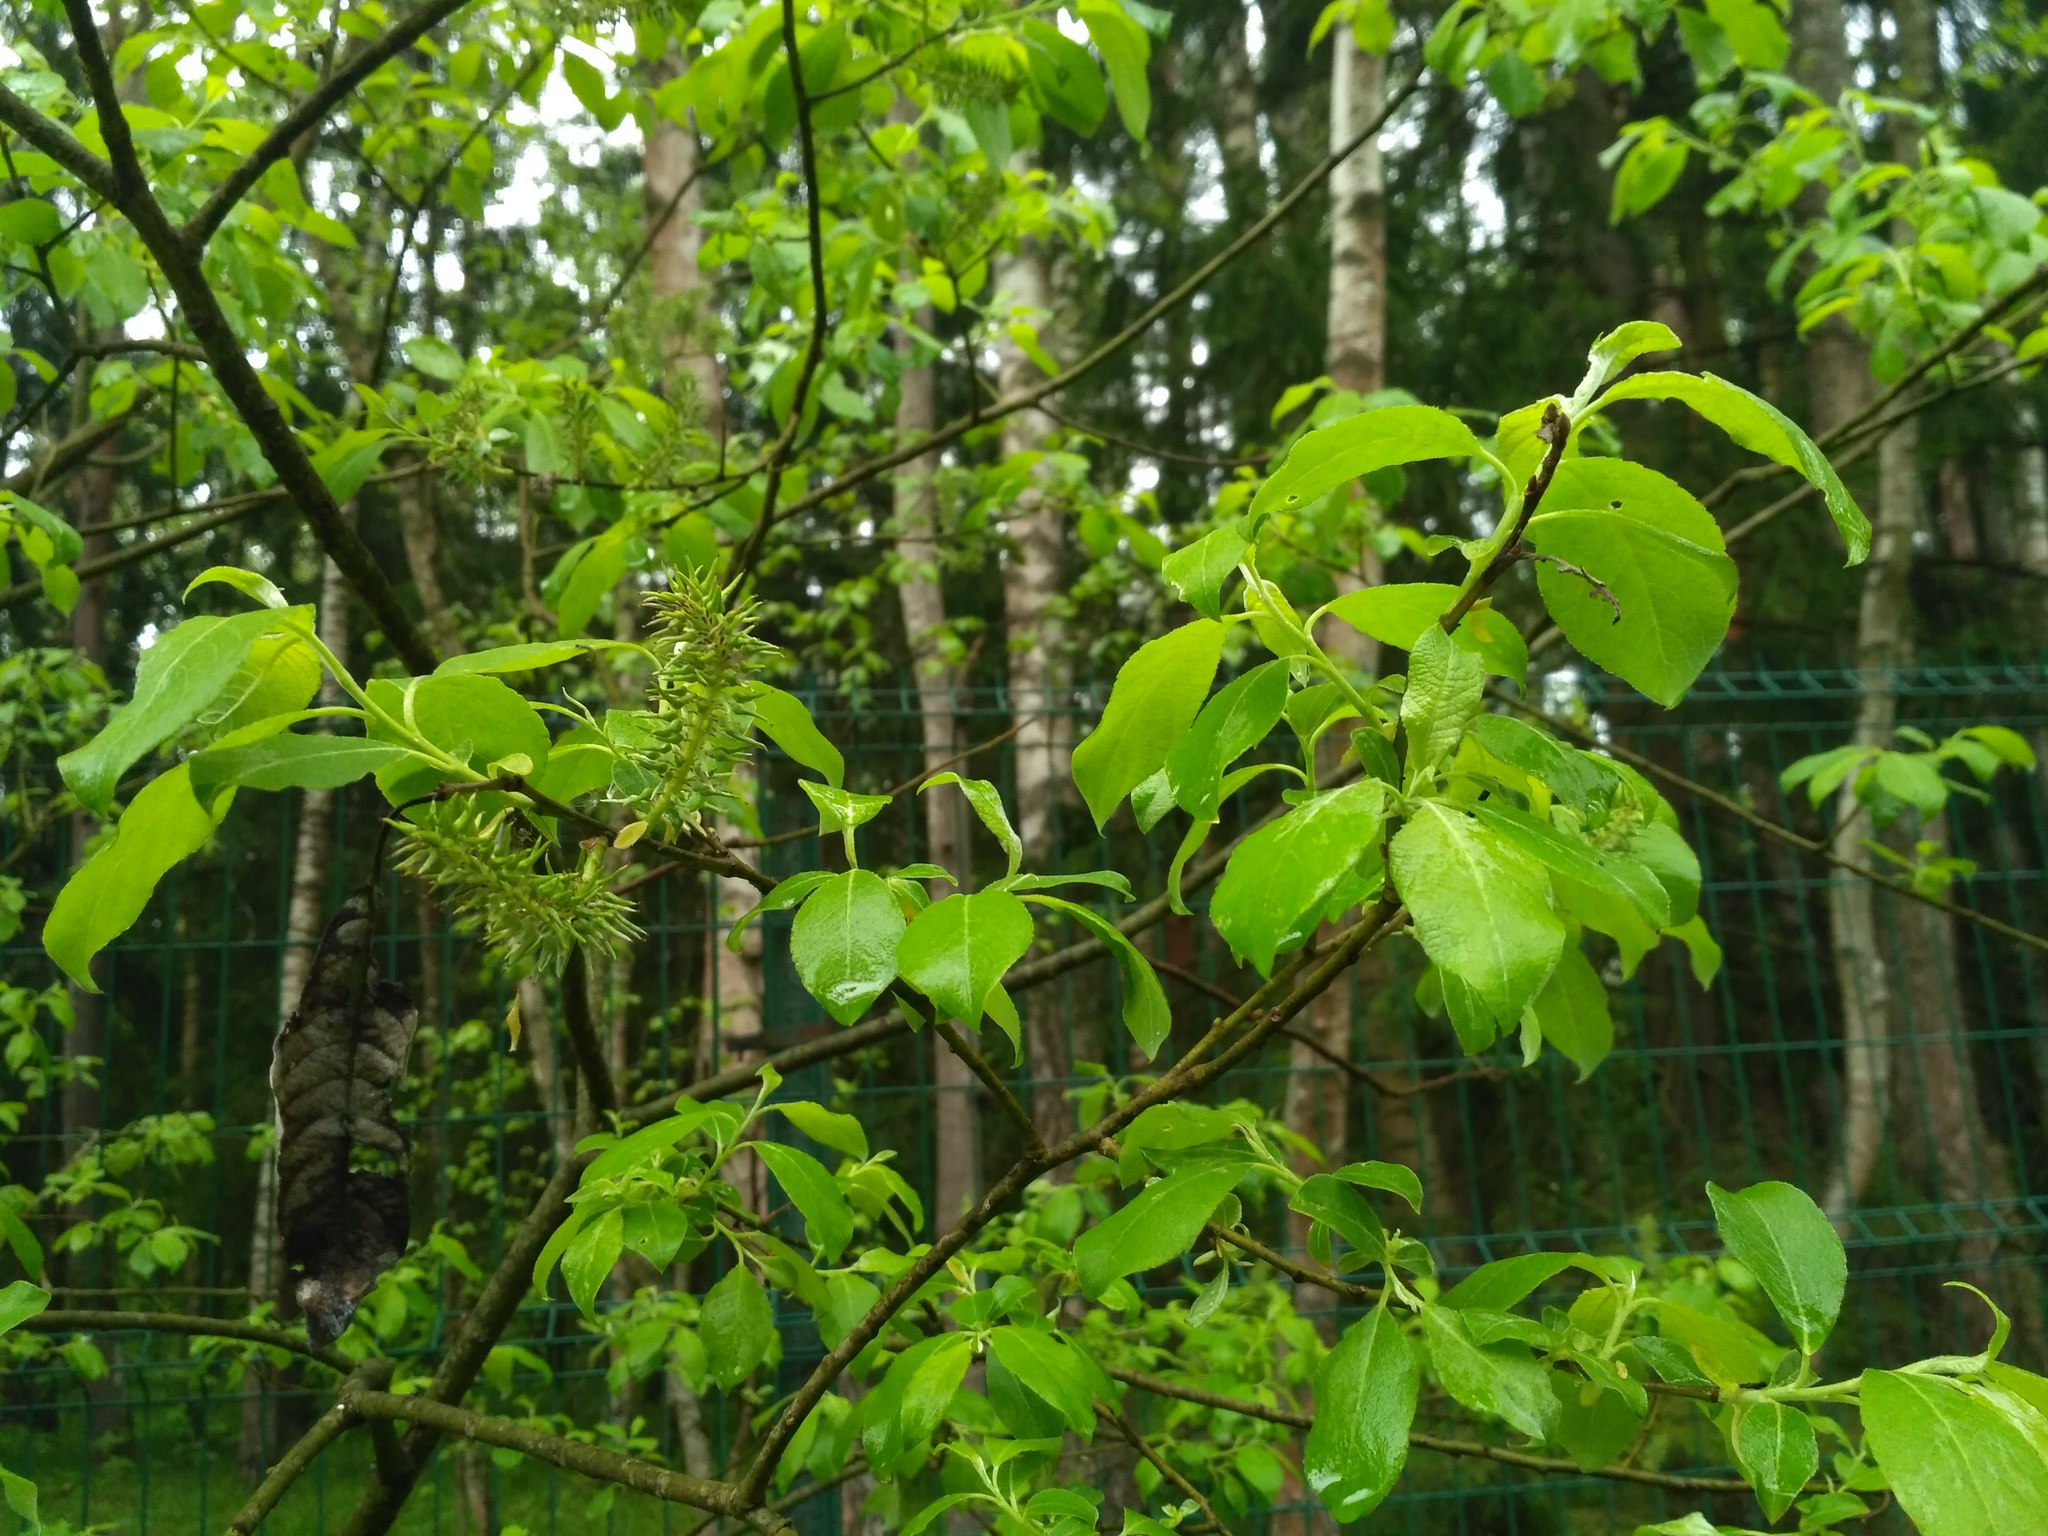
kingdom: Plantae
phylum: Tracheophyta
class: Magnoliopsida
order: Malpighiales
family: Salicaceae
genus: Salix
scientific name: Salix caprea
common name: Goat willow
